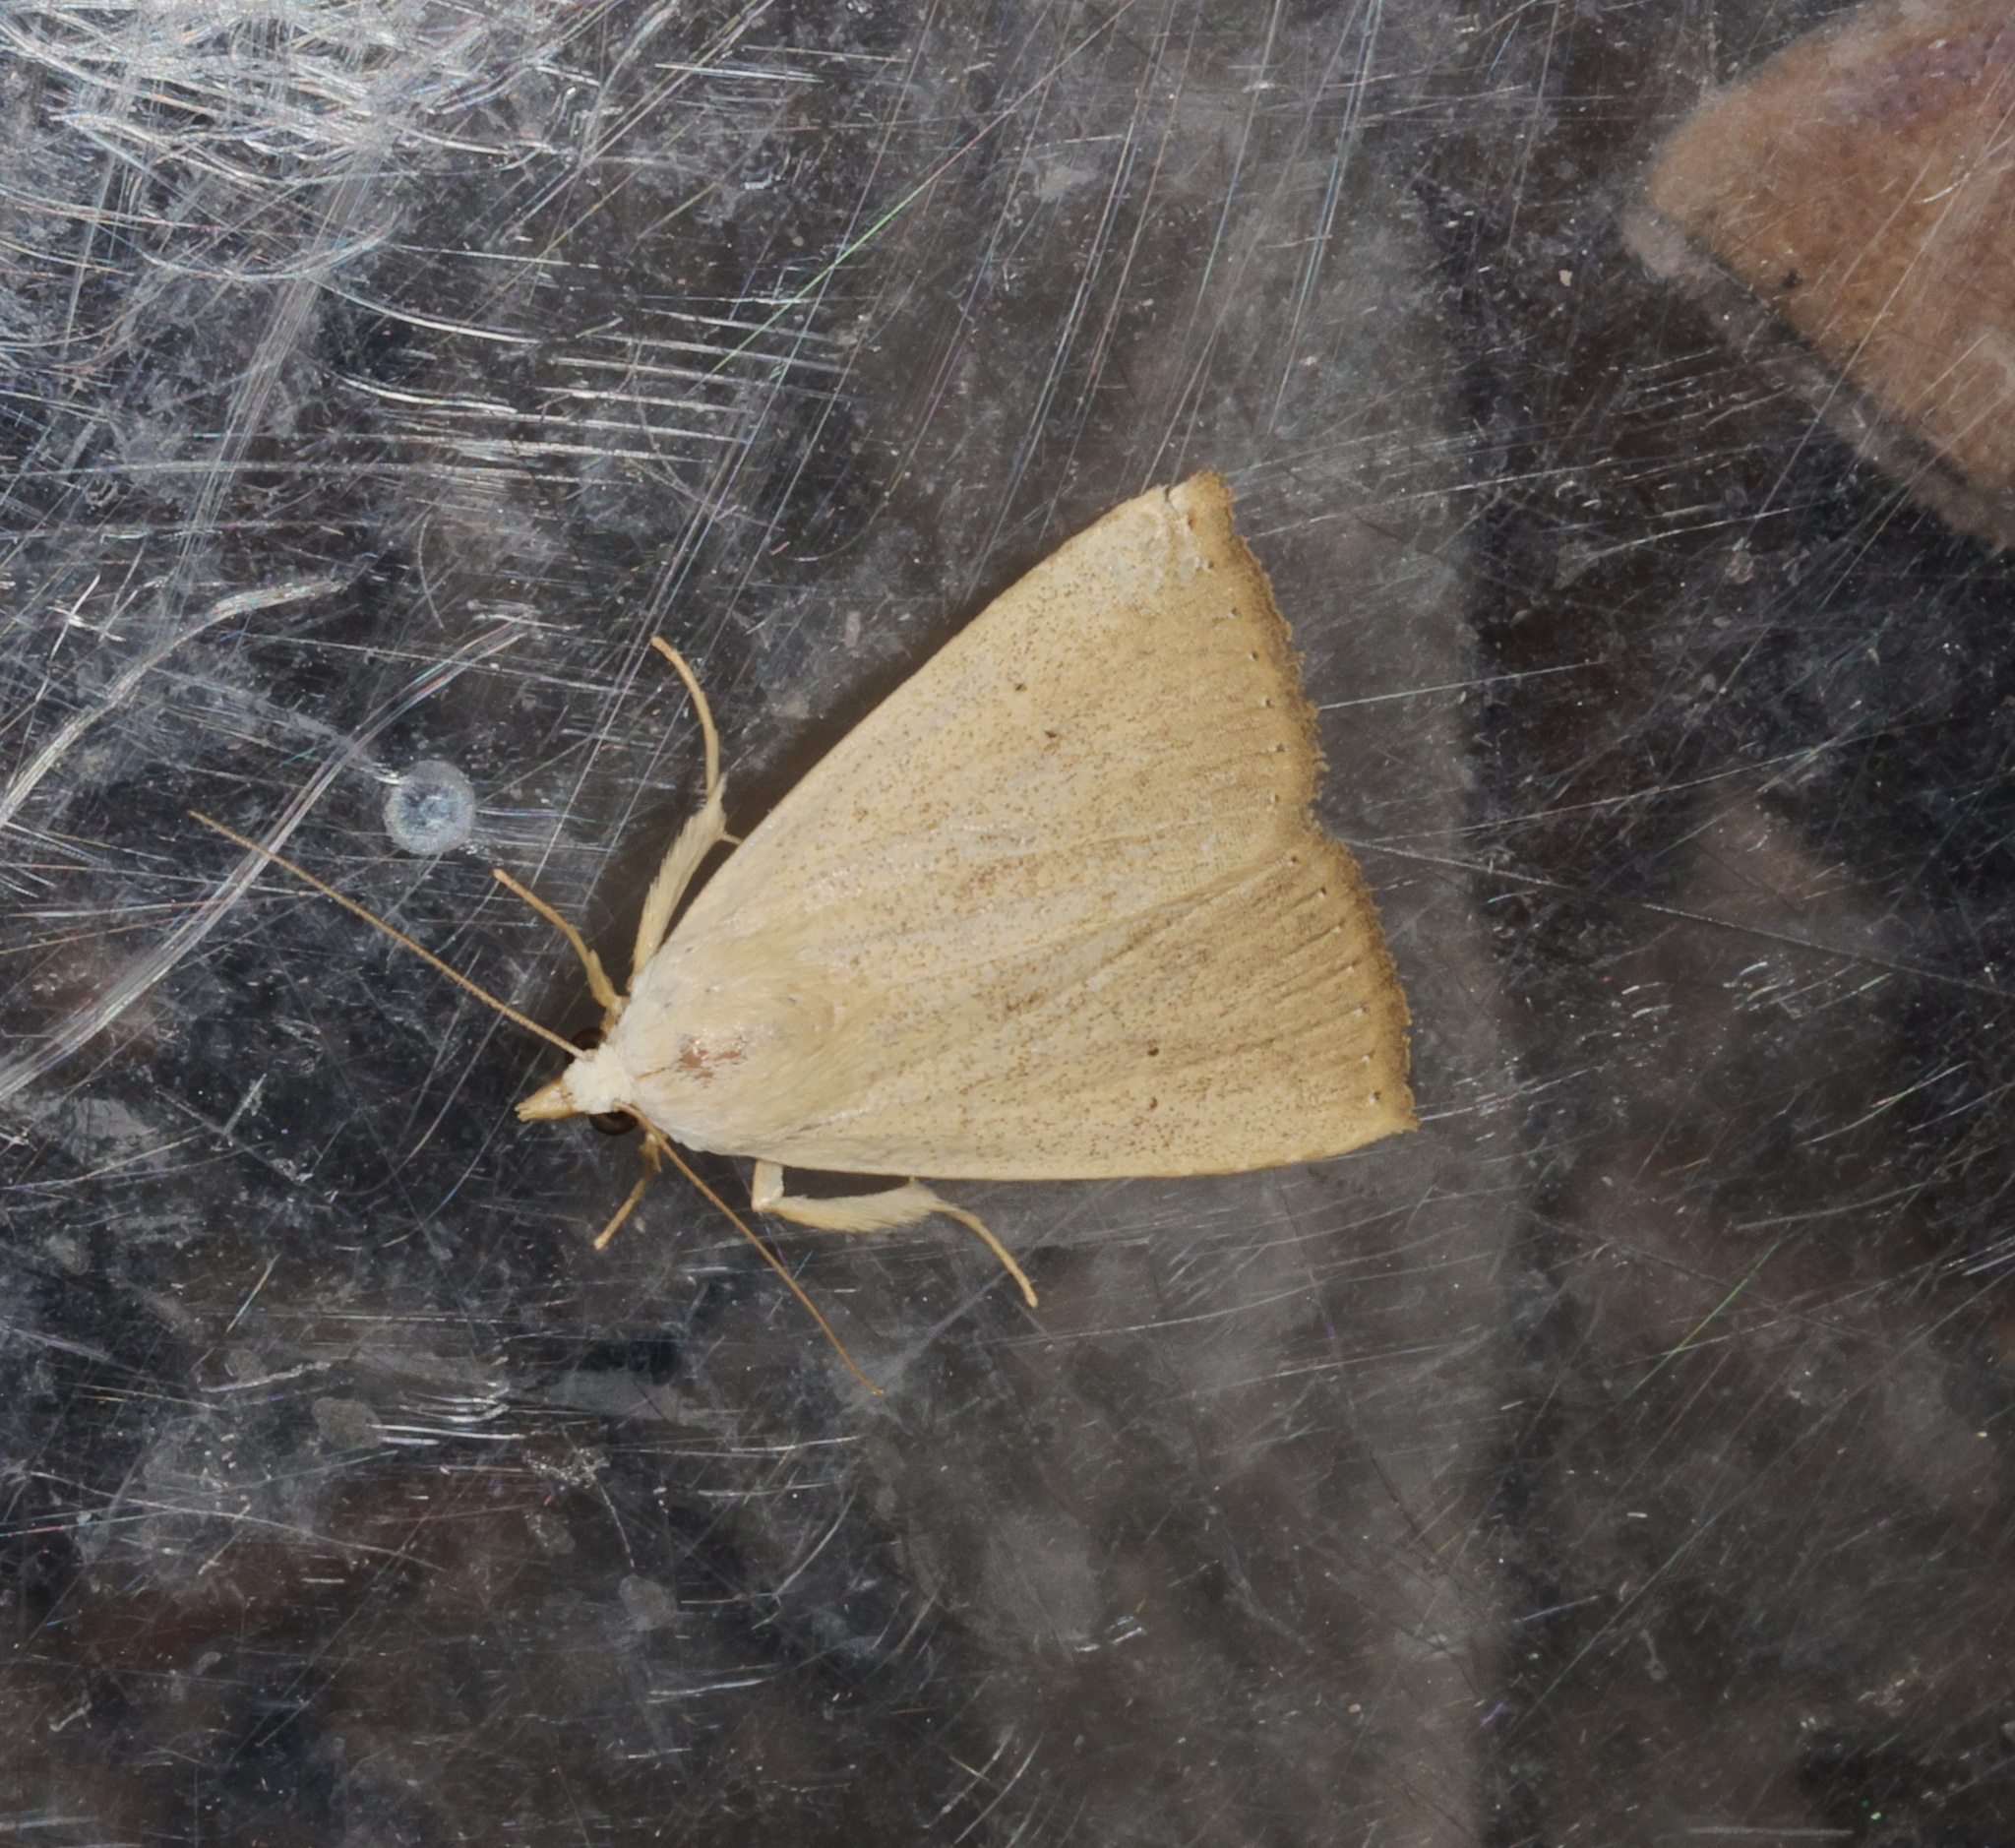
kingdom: Animalia
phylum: Arthropoda
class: Insecta
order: Lepidoptera
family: Erebidae
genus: Rivula
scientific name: Rivula ochracea
